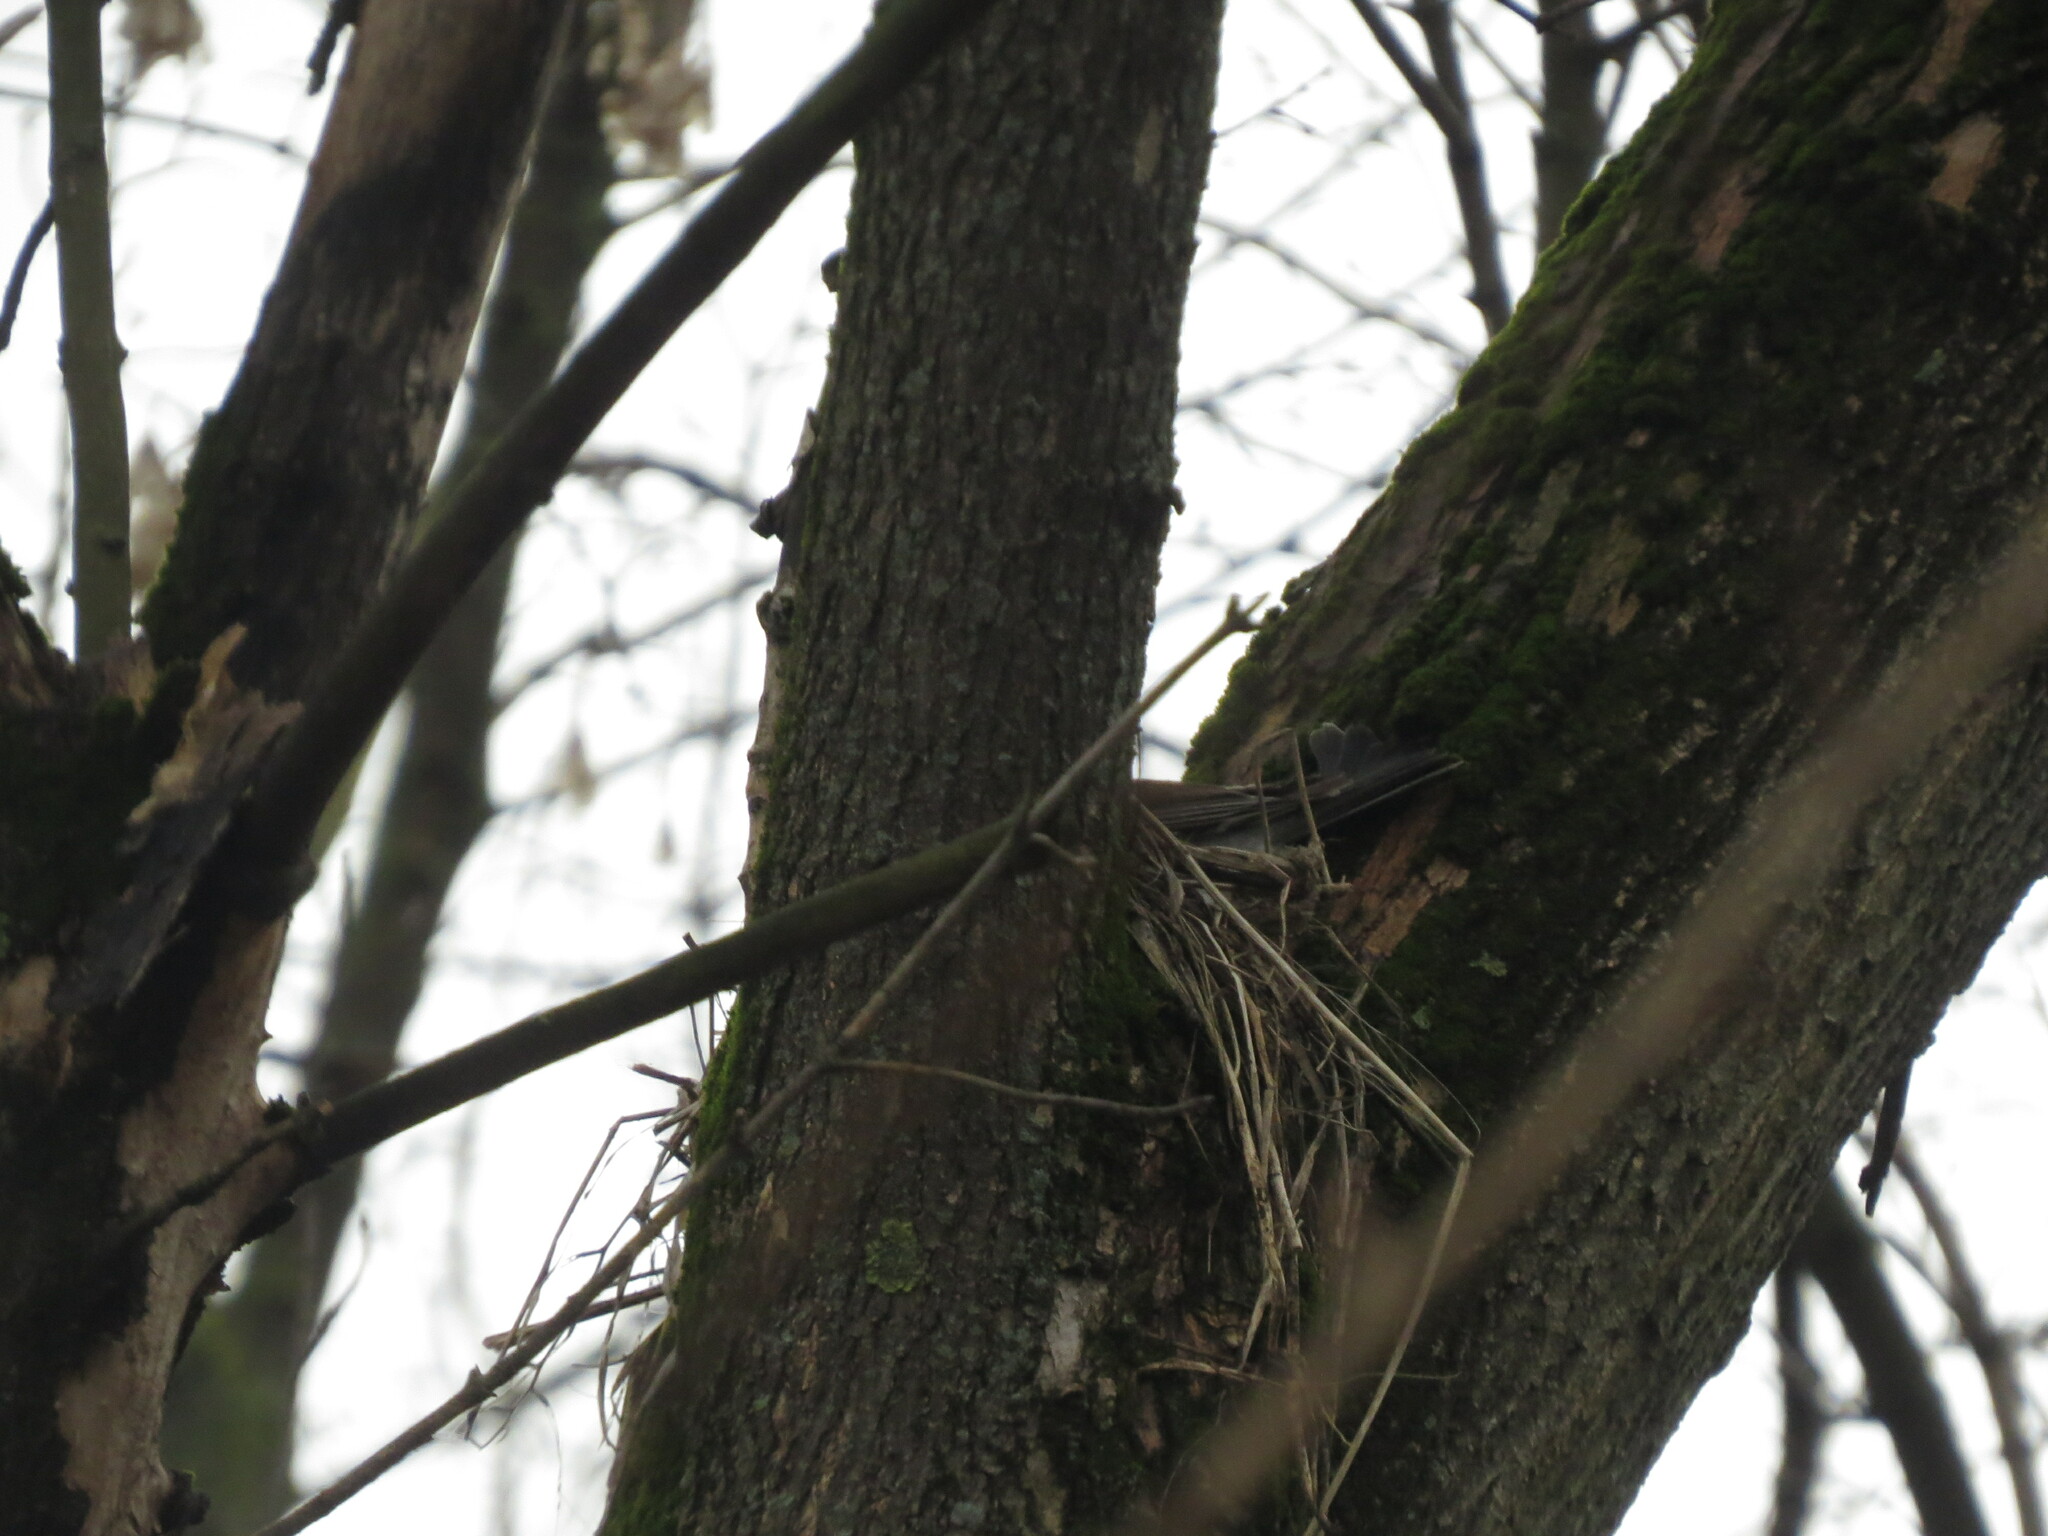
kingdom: Animalia
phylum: Chordata
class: Aves
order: Passeriformes
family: Turdidae
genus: Turdus
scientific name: Turdus pilaris
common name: Fieldfare
